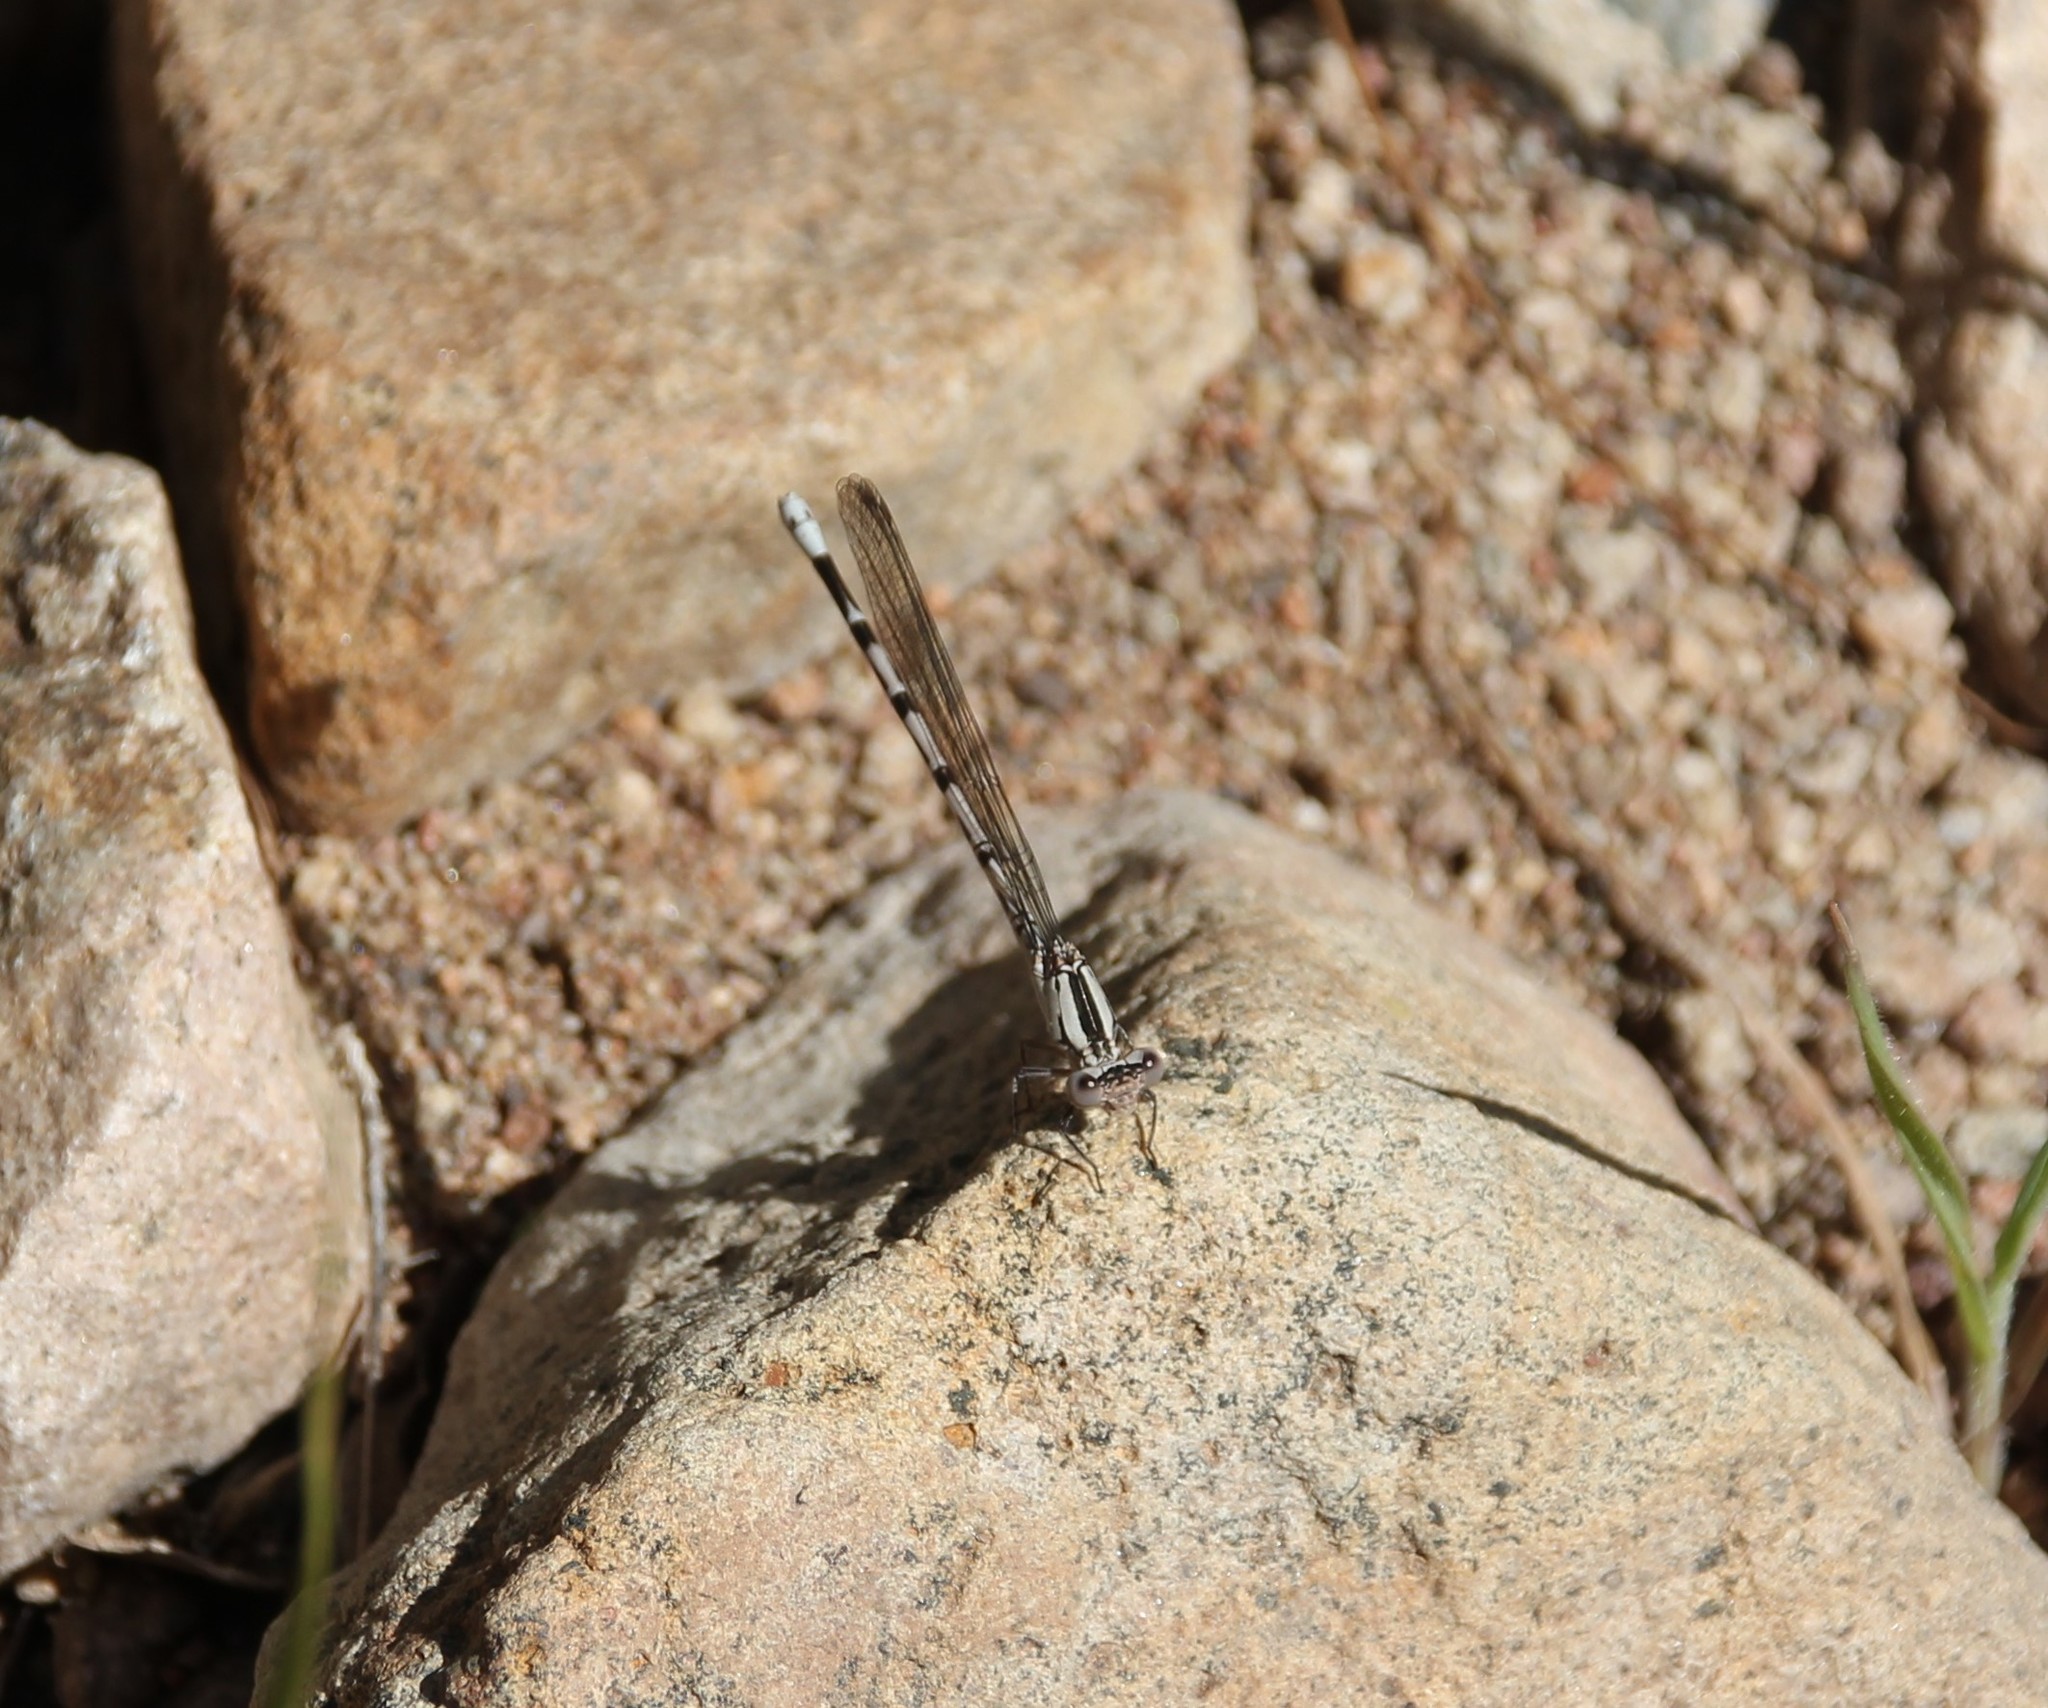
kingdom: Animalia
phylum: Arthropoda
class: Insecta
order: Odonata
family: Coenagrionidae
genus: Argia
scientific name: Argia vivida
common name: Vivid dancer
